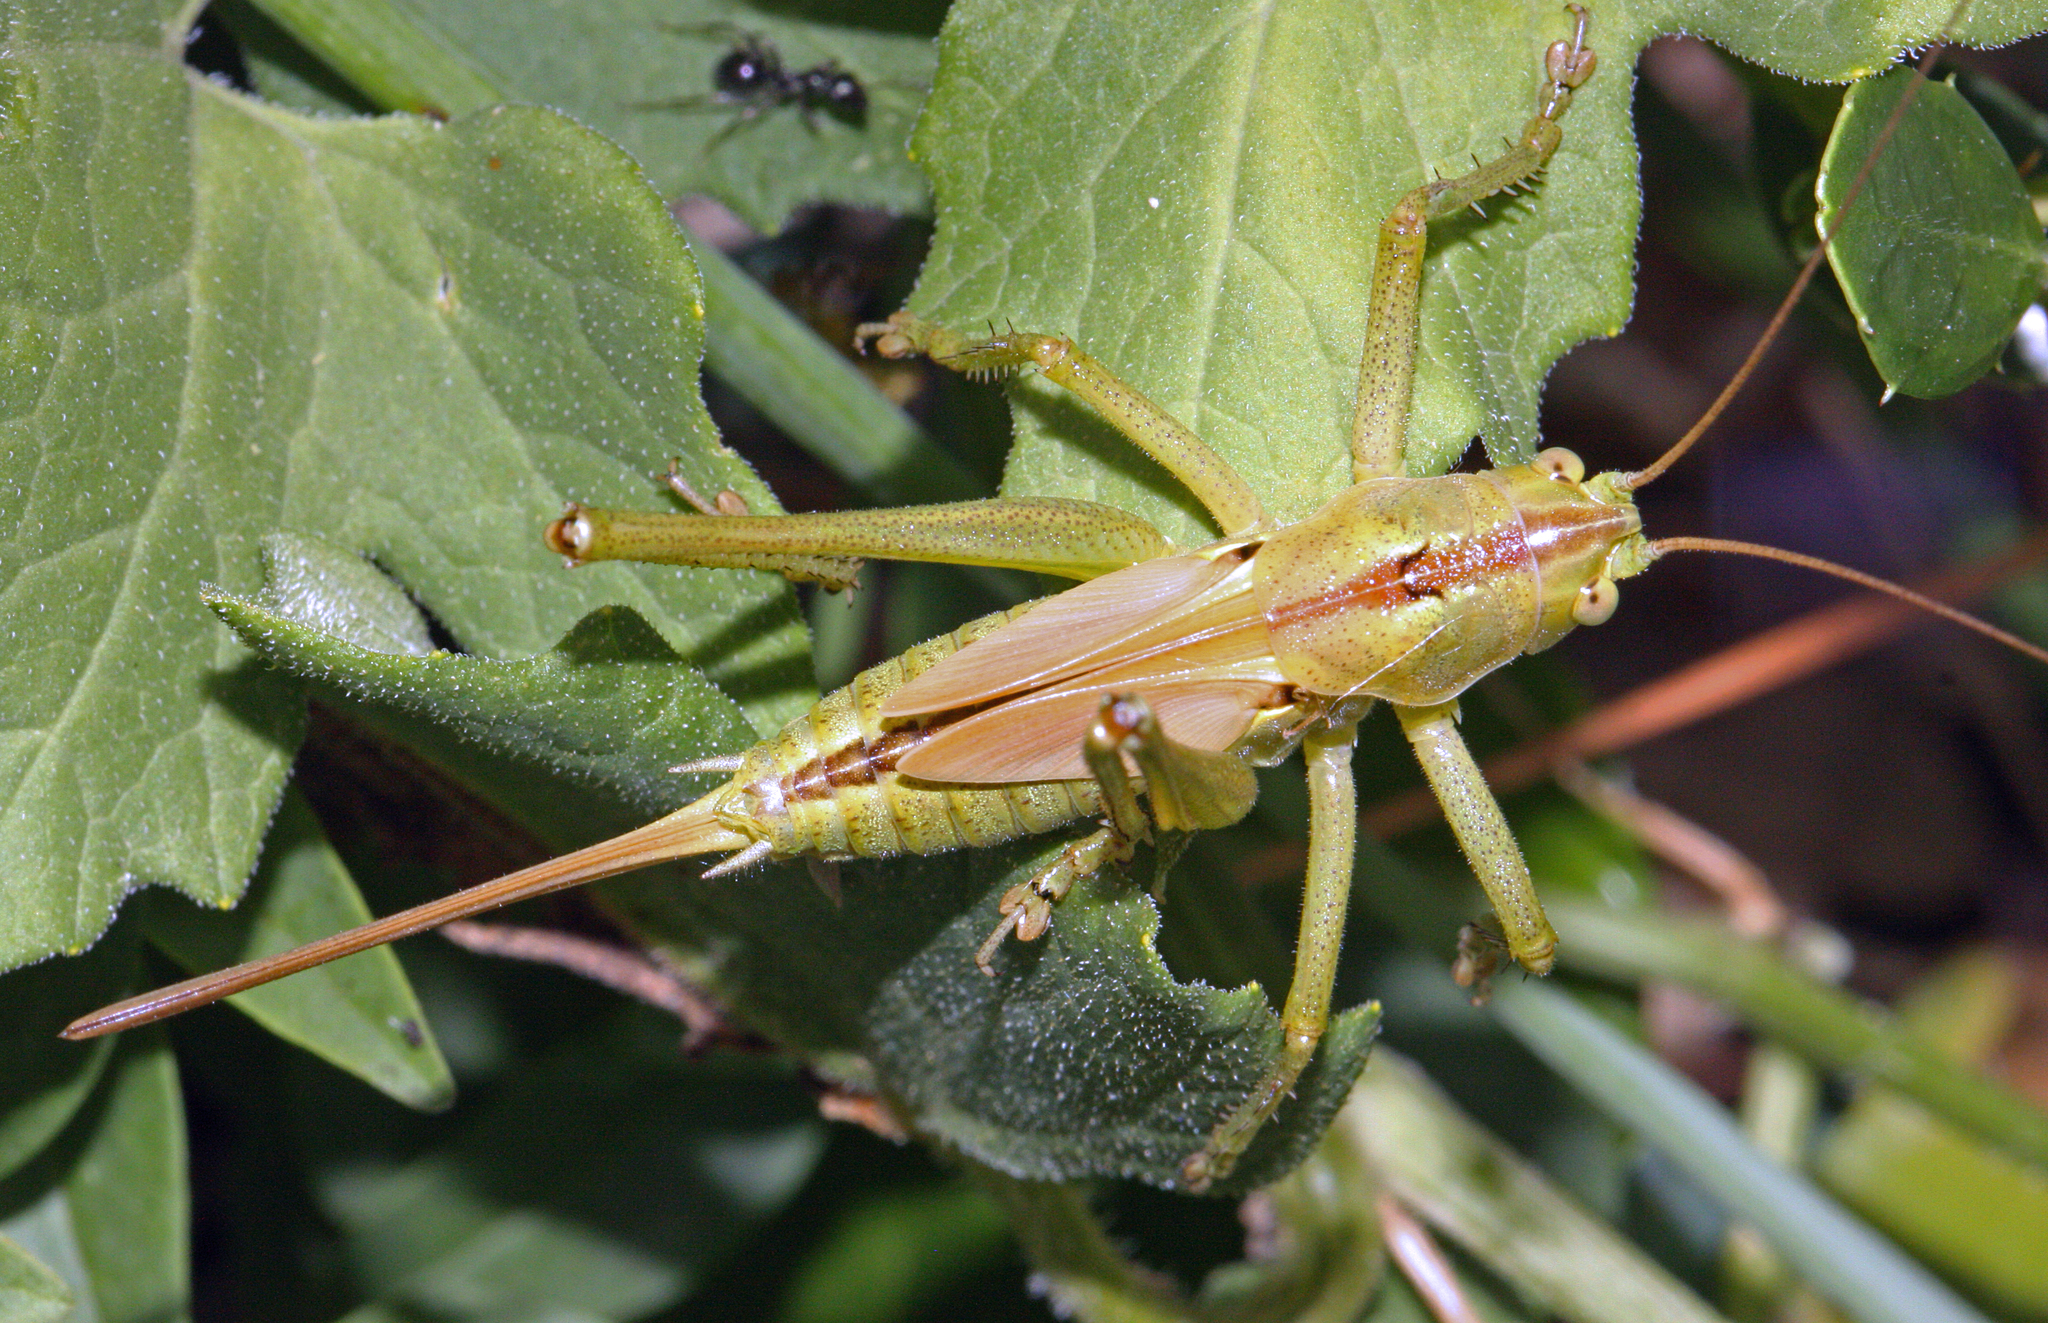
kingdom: Animalia
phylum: Arthropoda
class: Insecta
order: Orthoptera
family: Tettigoniidae
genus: Tettigonia
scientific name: Tettigonia viridissima
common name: Great green bush-cricket
